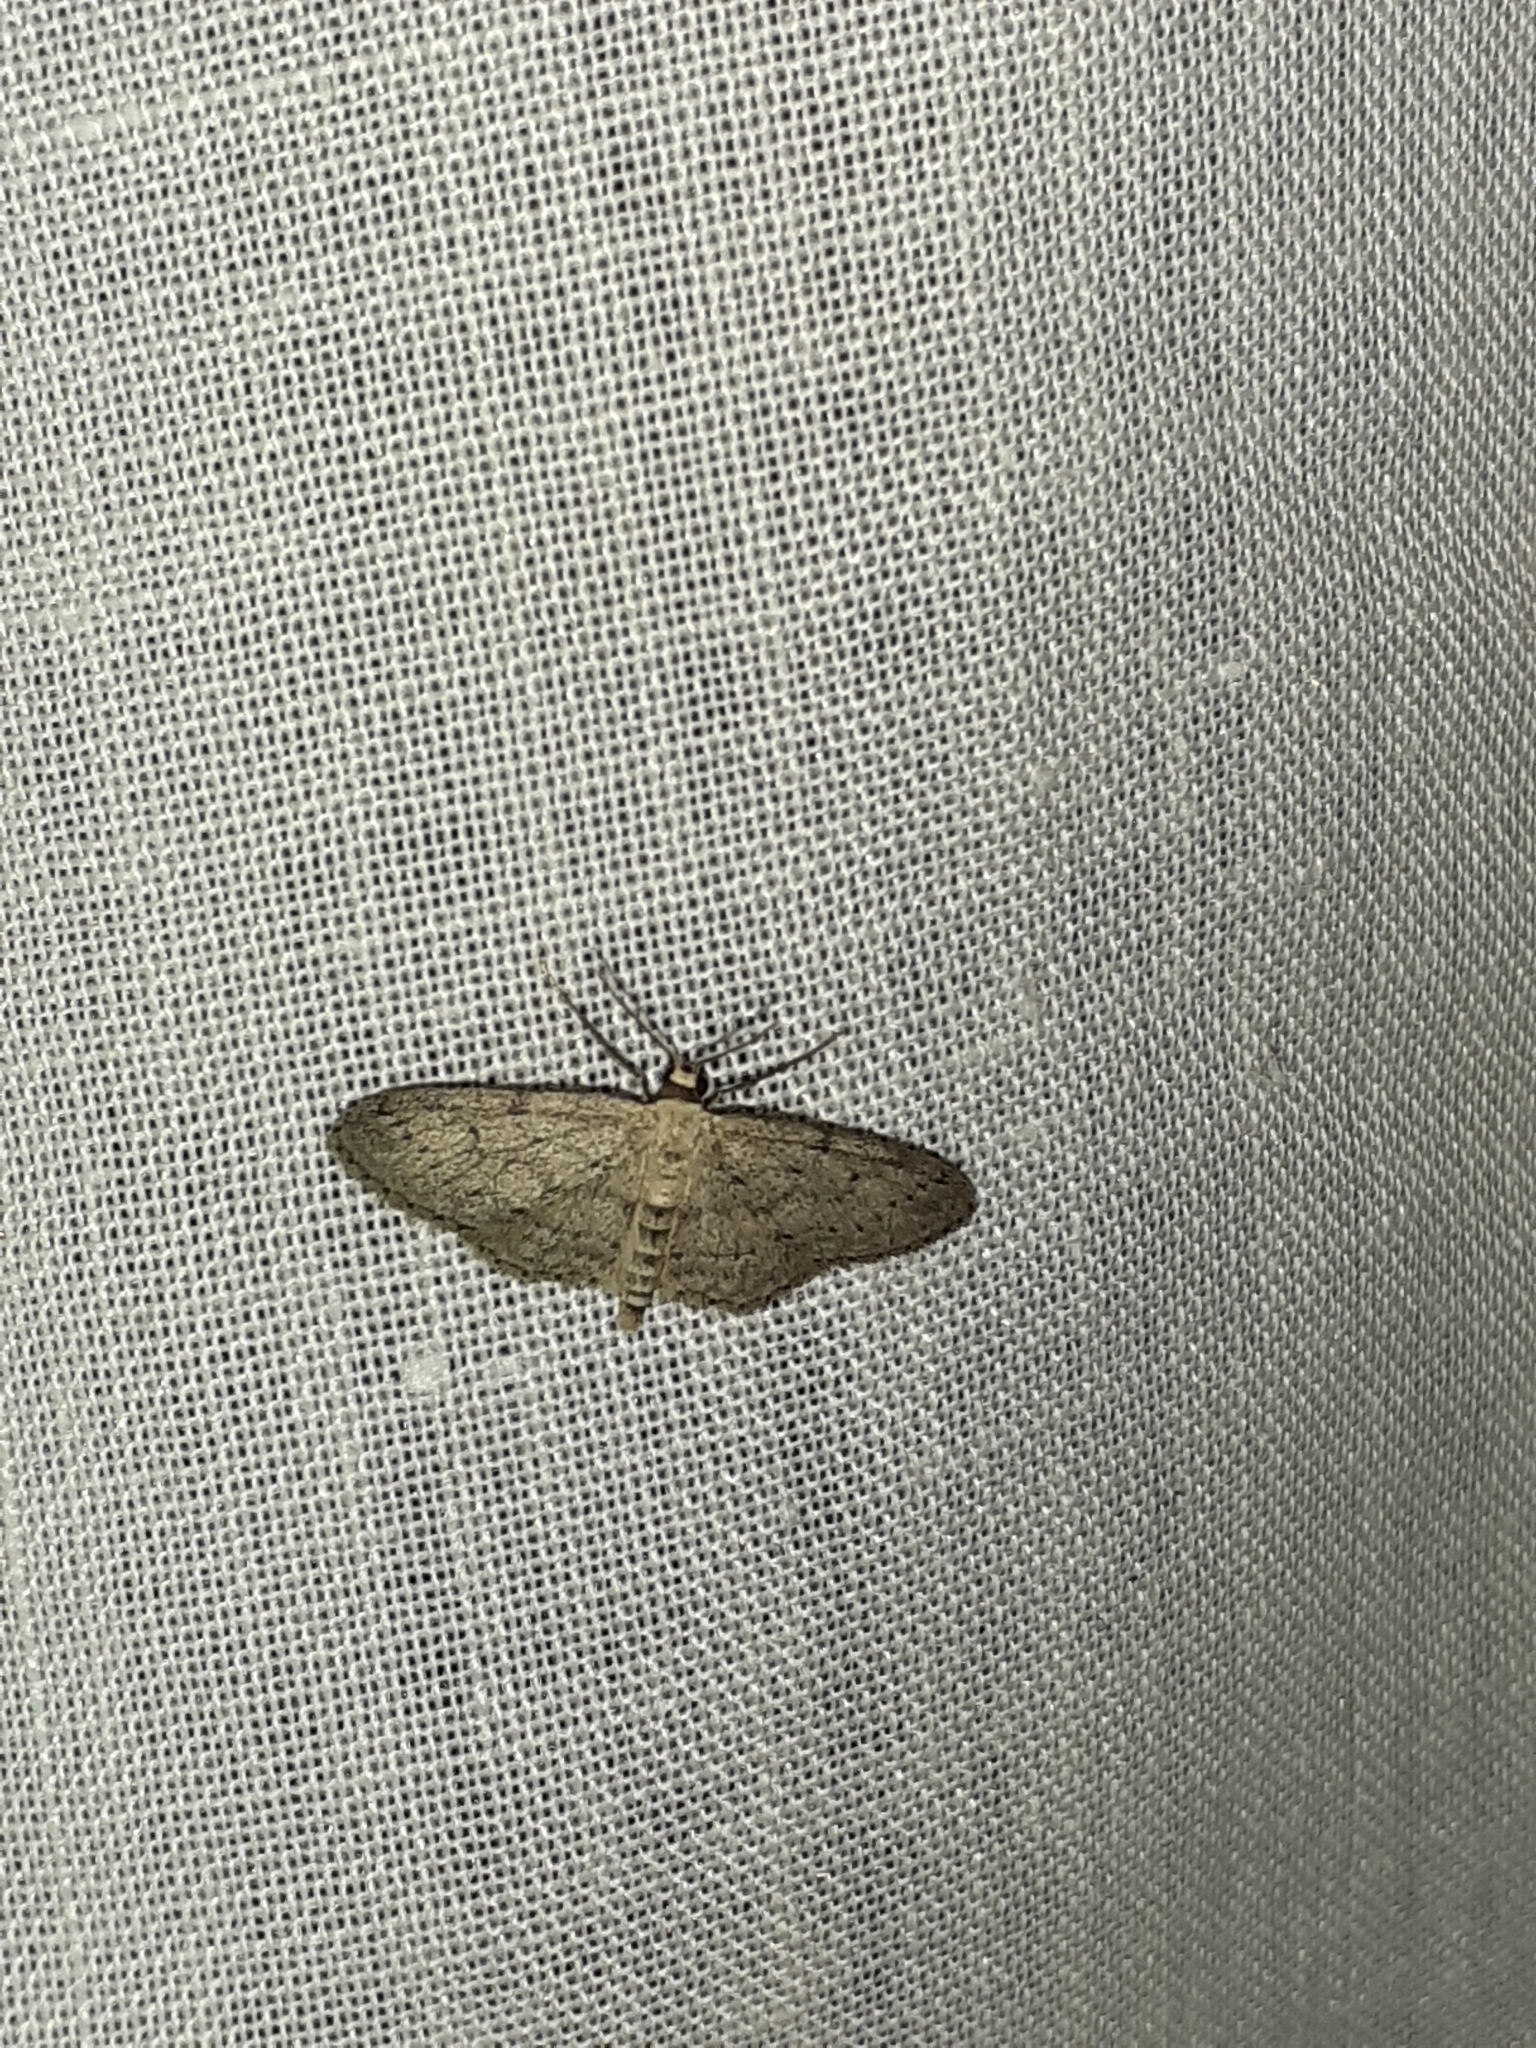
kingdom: Animalia
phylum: Arthropoda
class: Insecta
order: Lepidoptera
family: Geometridae
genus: Idaea
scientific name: Idaea seriata
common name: Small dusty wave
